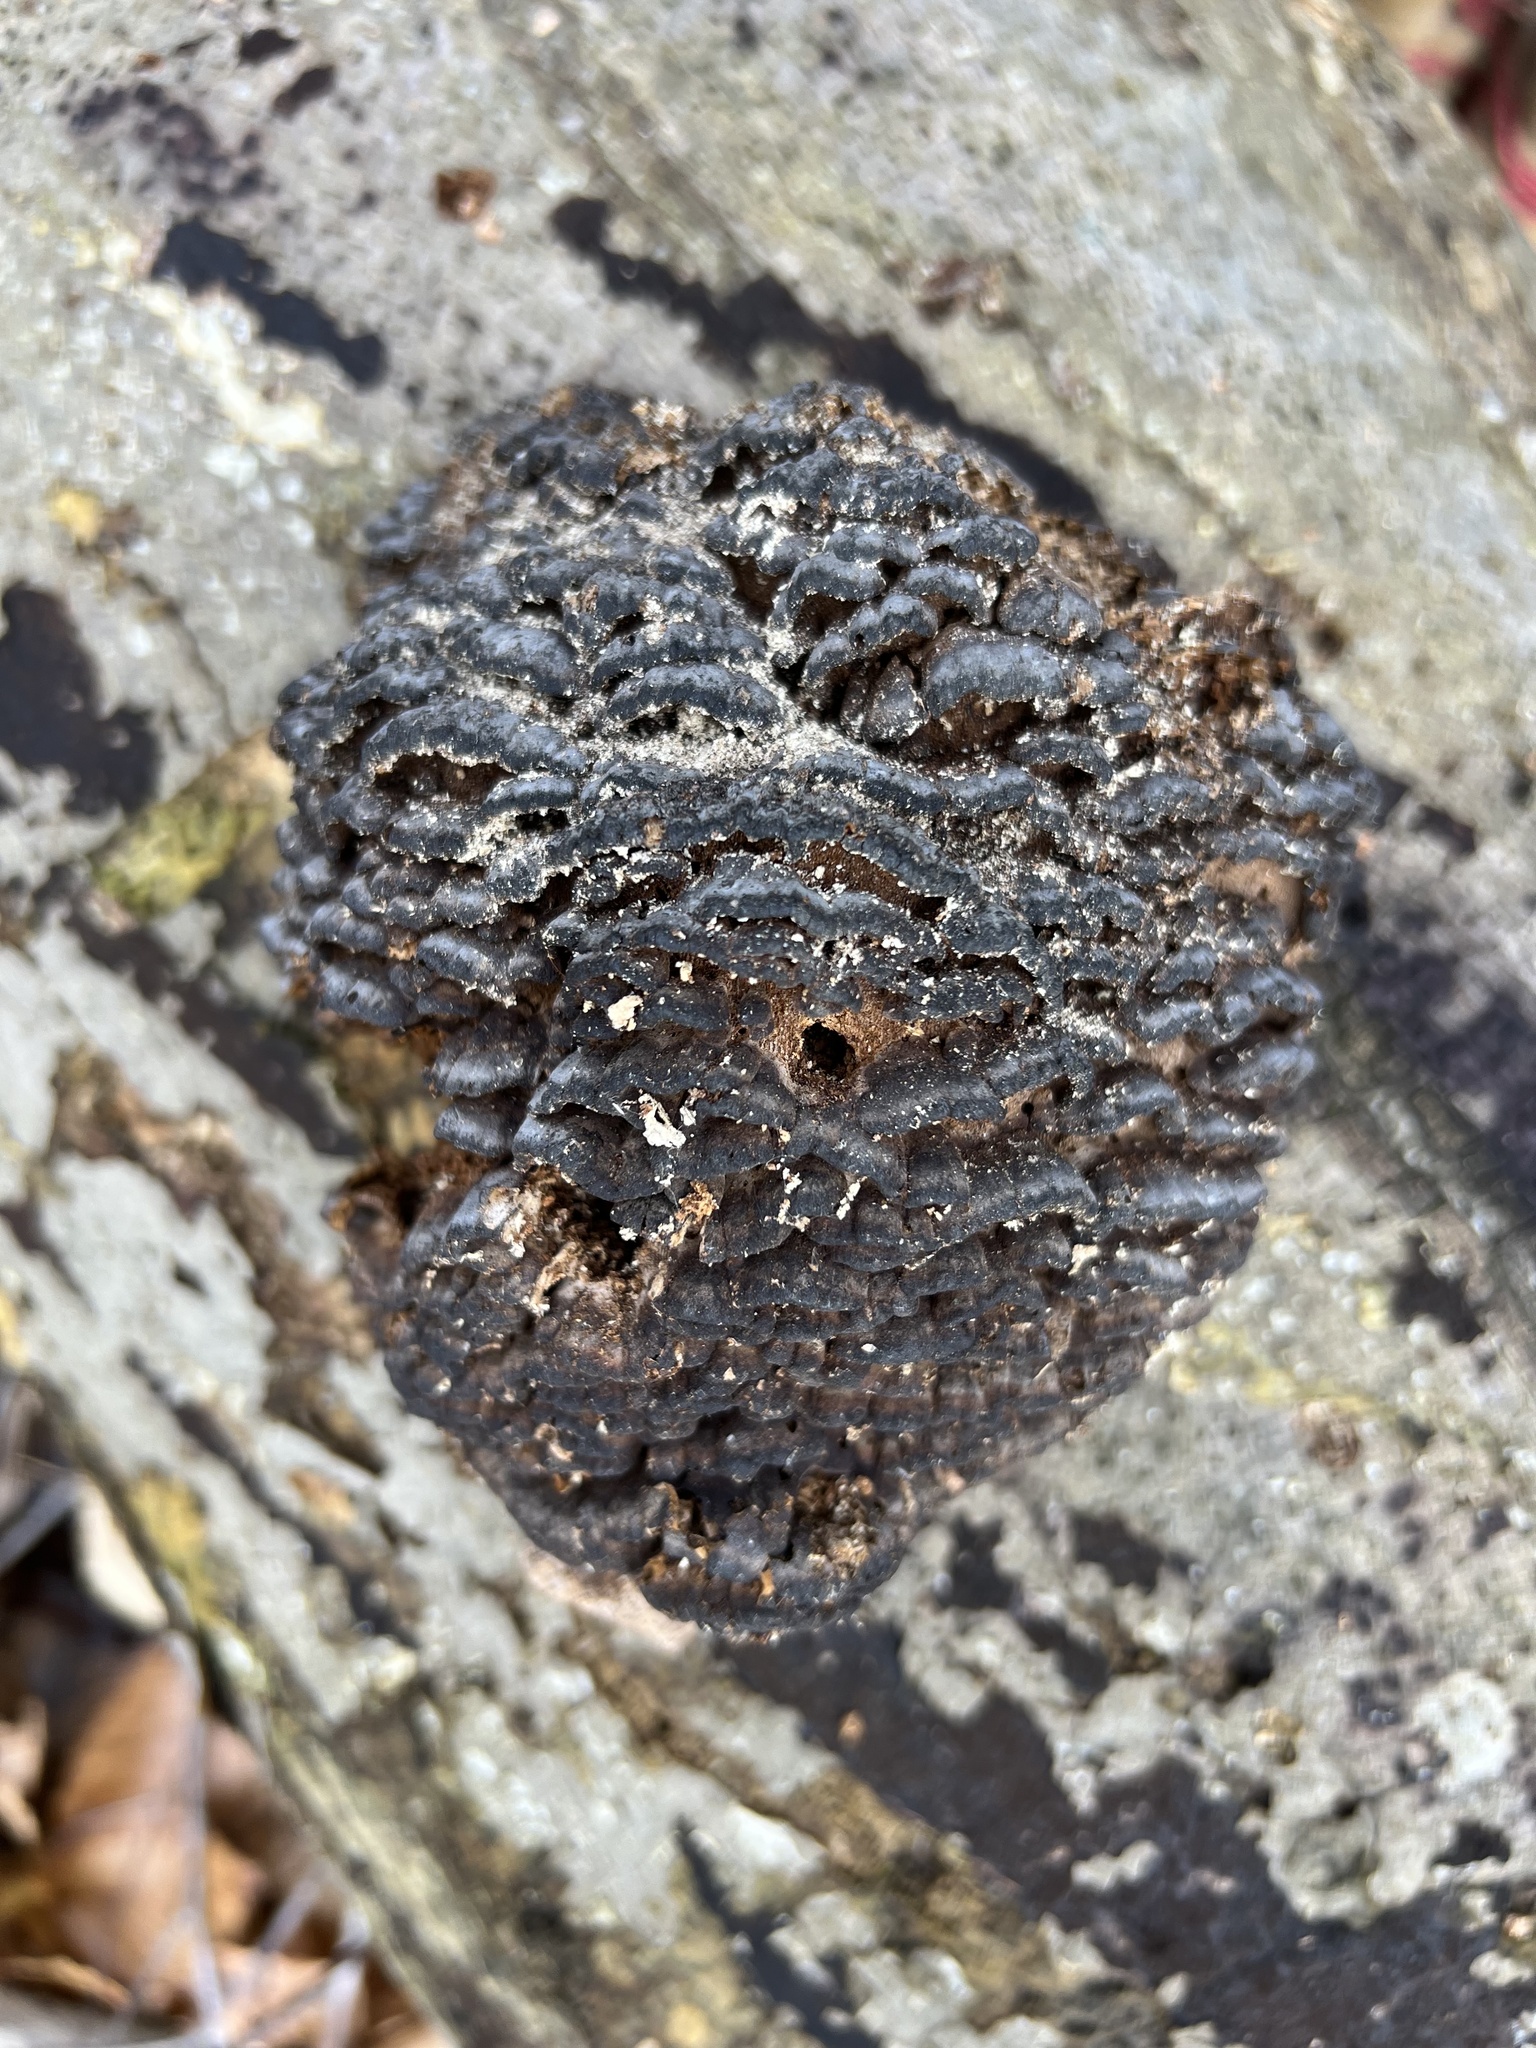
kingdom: Fungi
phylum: Basidiomycota
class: Agaricomycetes
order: Polyporales
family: Polyporaceae
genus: Globifomes
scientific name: Globifomes graveolens
